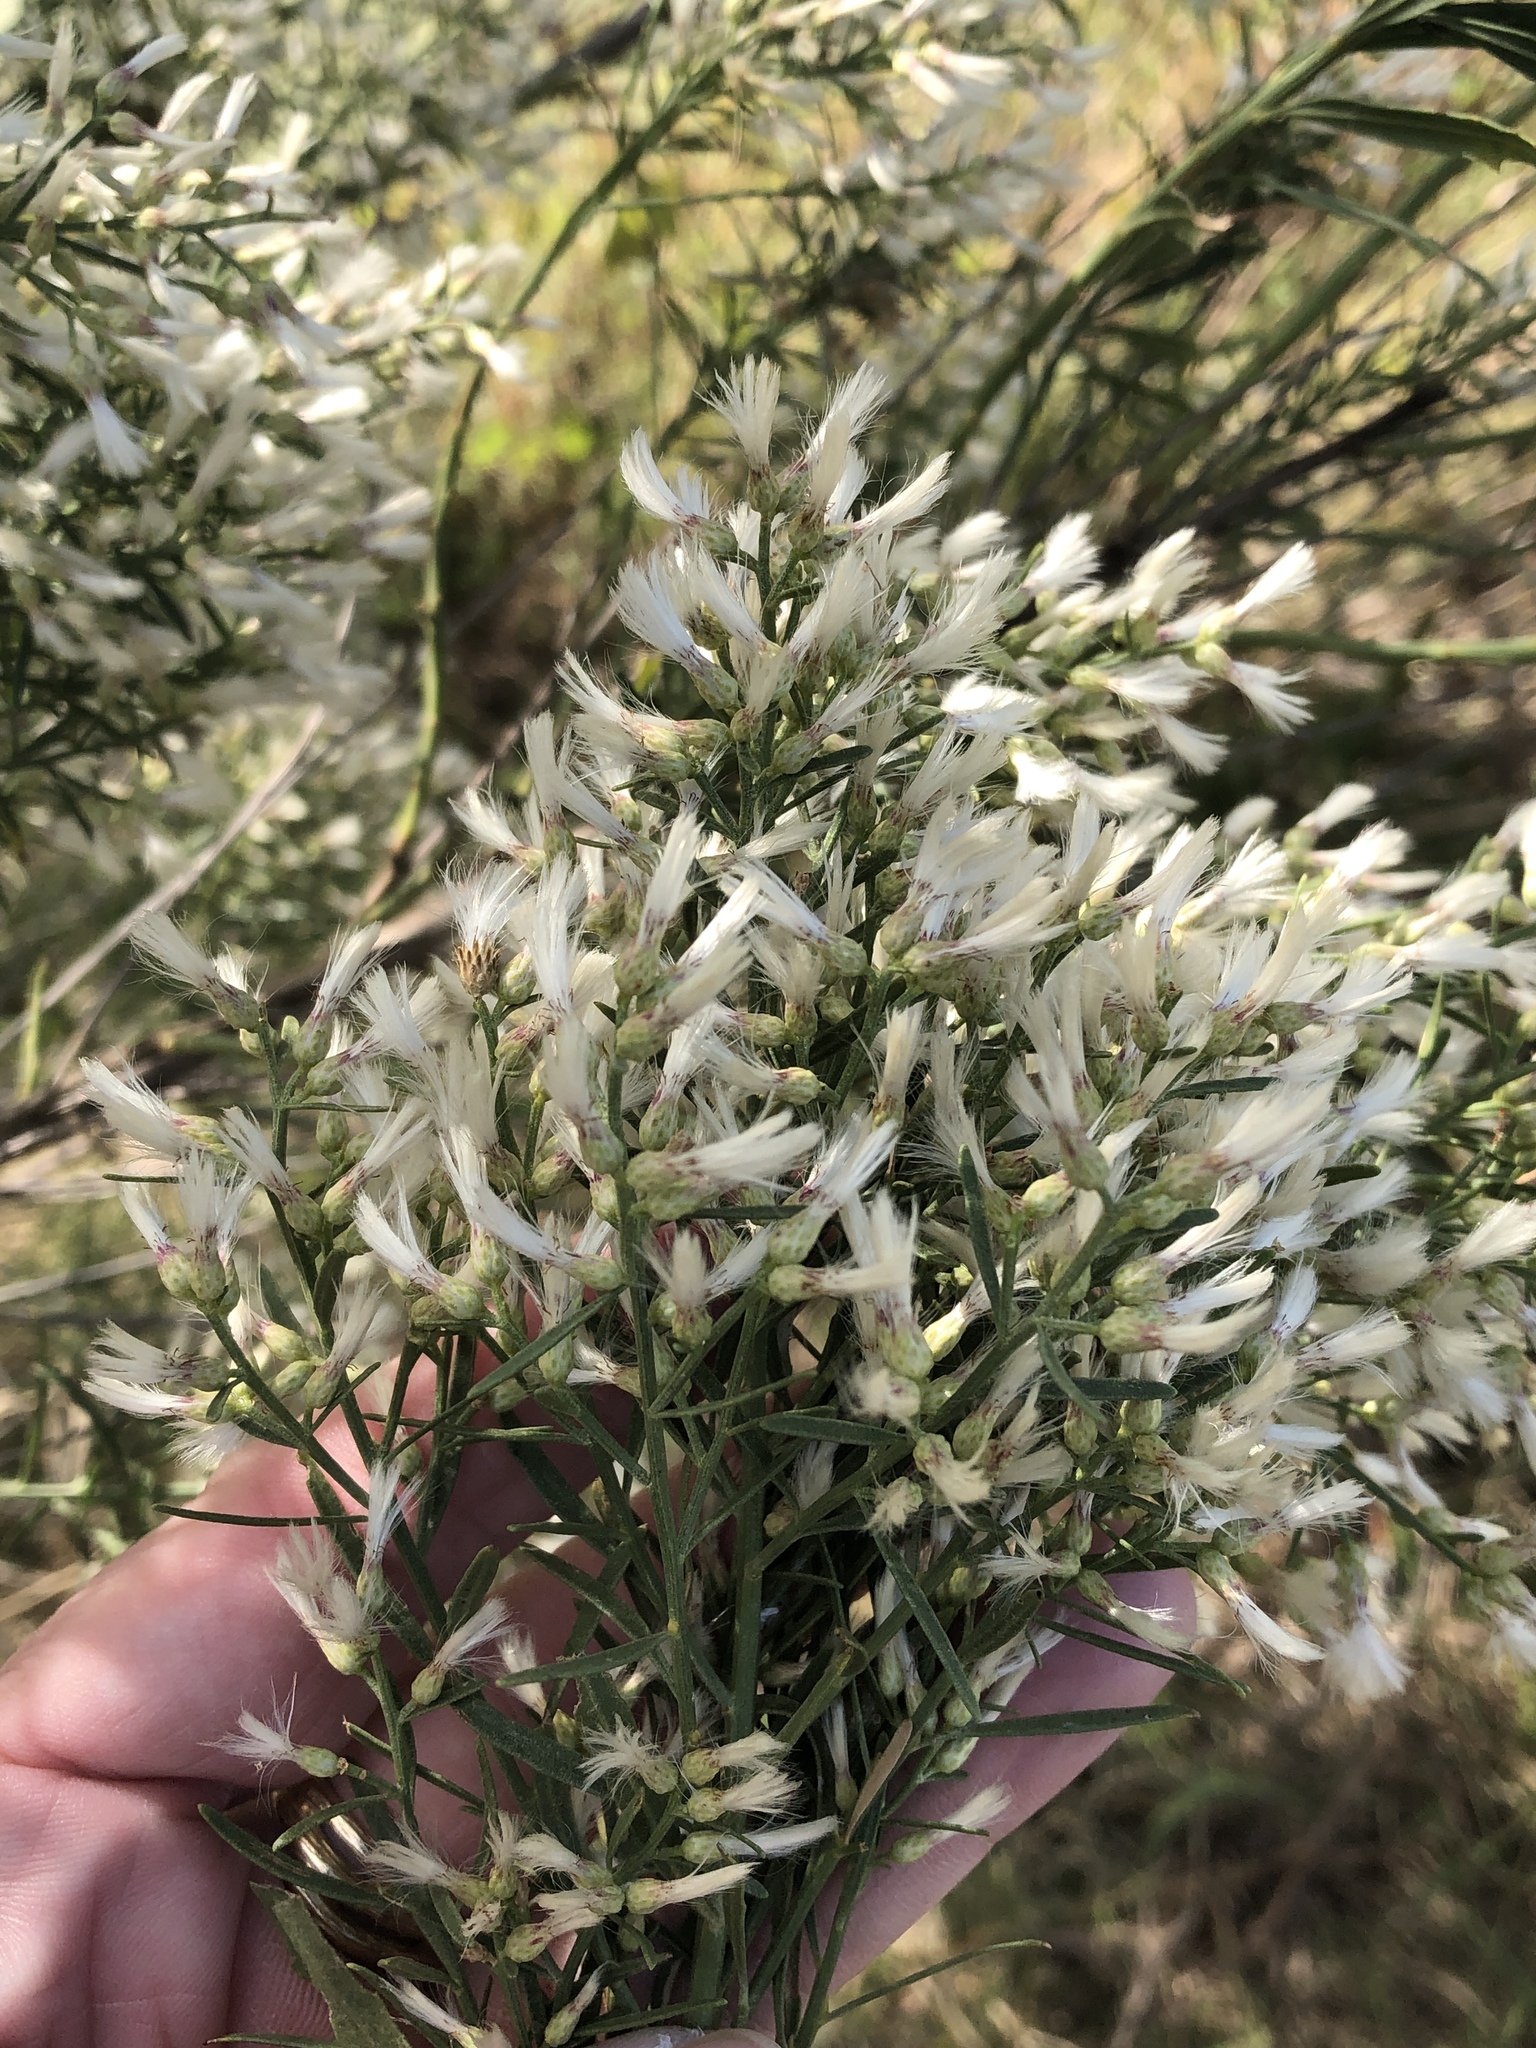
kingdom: Plantae
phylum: Tracheophyta
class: Magnoliopsida
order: Asterales
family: Asteraceae
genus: Baccharis
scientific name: Baccharis neglecta
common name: Roosevelt-weed
